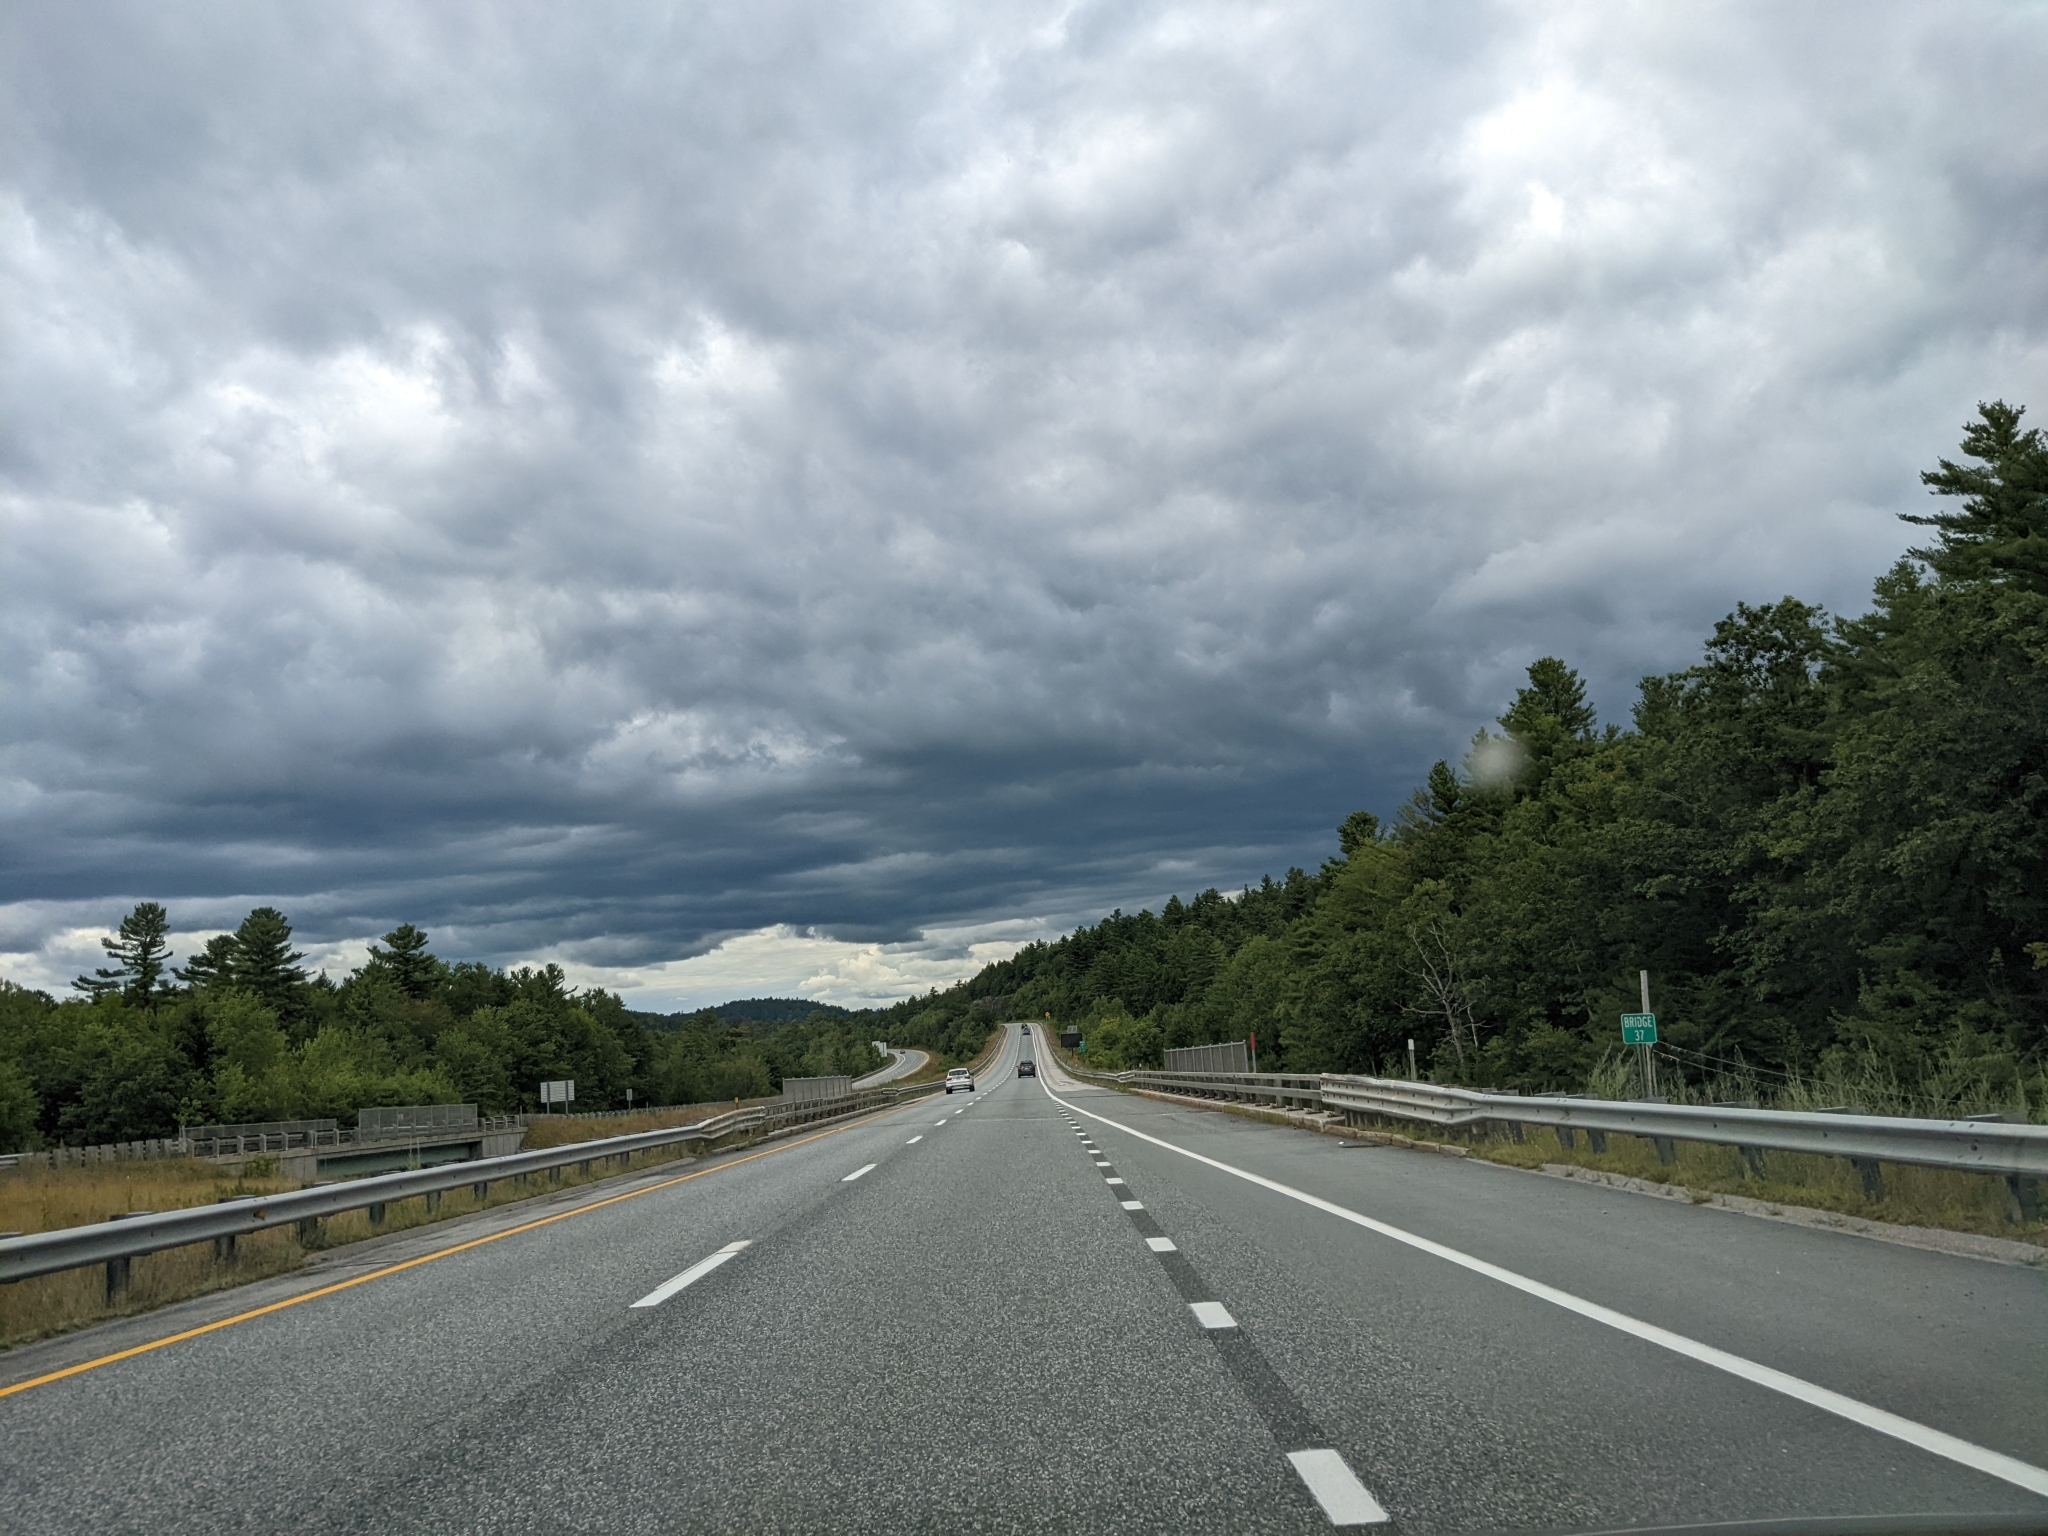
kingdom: Plantae
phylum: Tracheophyta
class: Pinopsida
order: Pinales
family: Pinaceae
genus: Pinus
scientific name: Pinus strobus
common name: Weymouth pine
